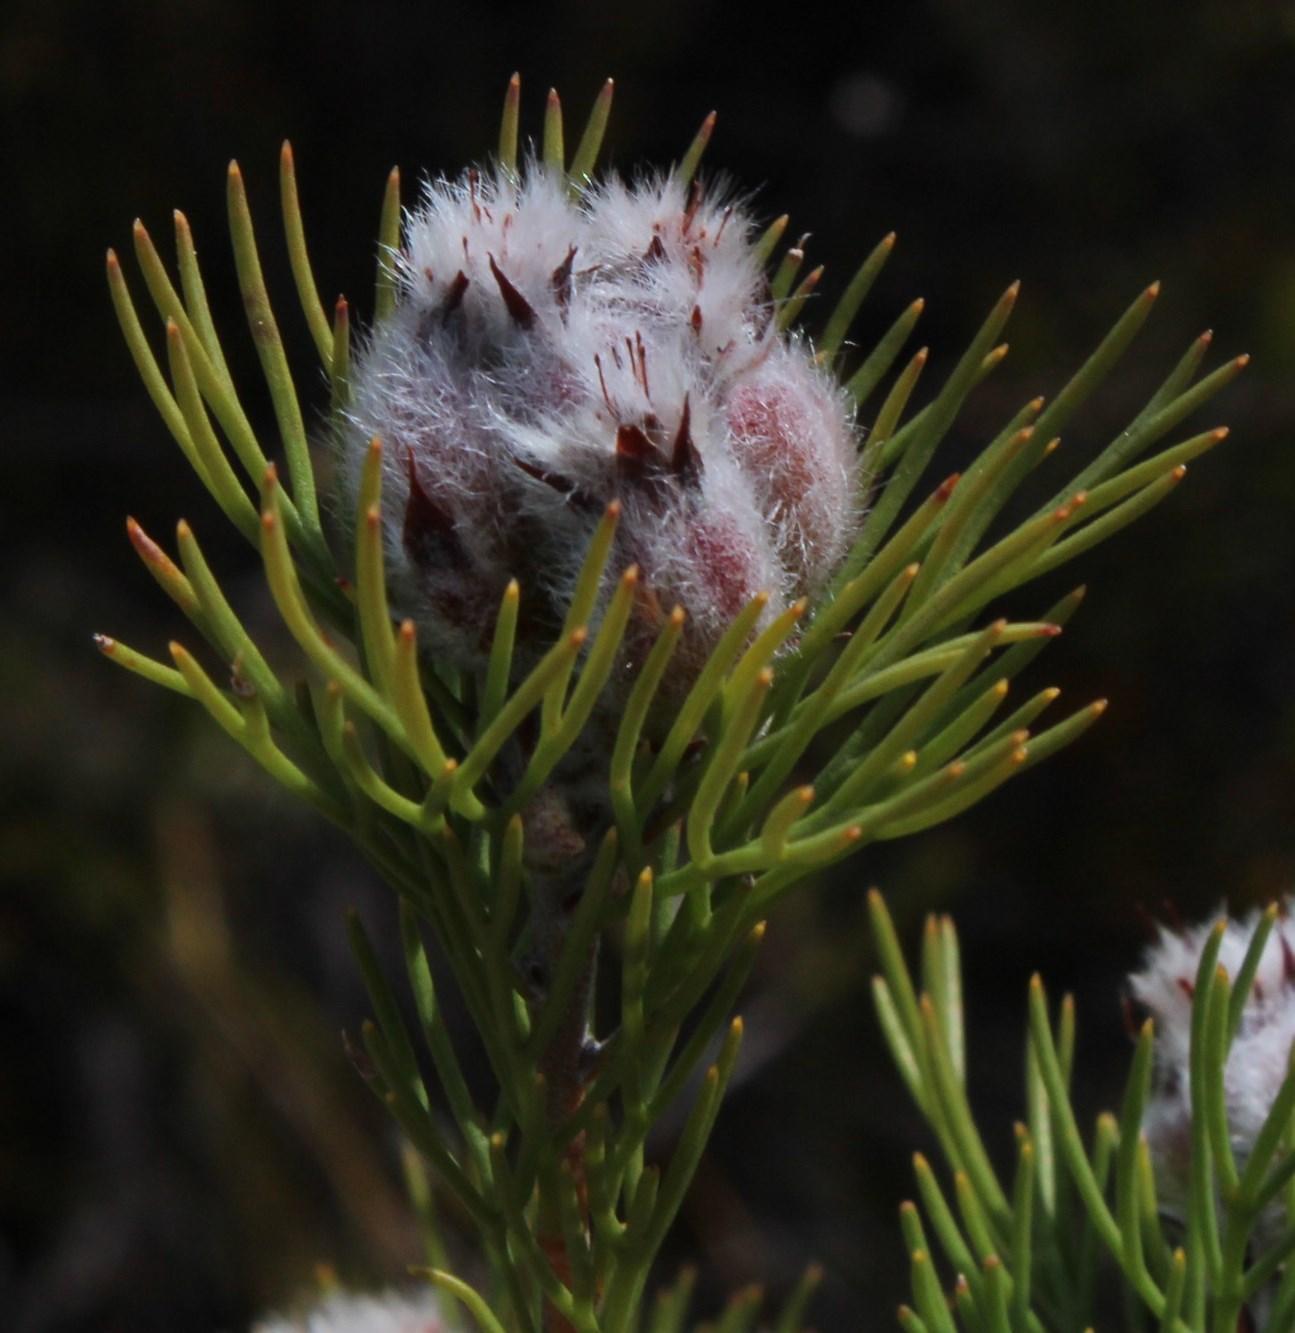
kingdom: Plantae
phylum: Tracheophyta
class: Magnoliopsida
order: Proteales
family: Proteaceae
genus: Paranomus
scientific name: Paranomus capitatus
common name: Fine-leaf sceptre
